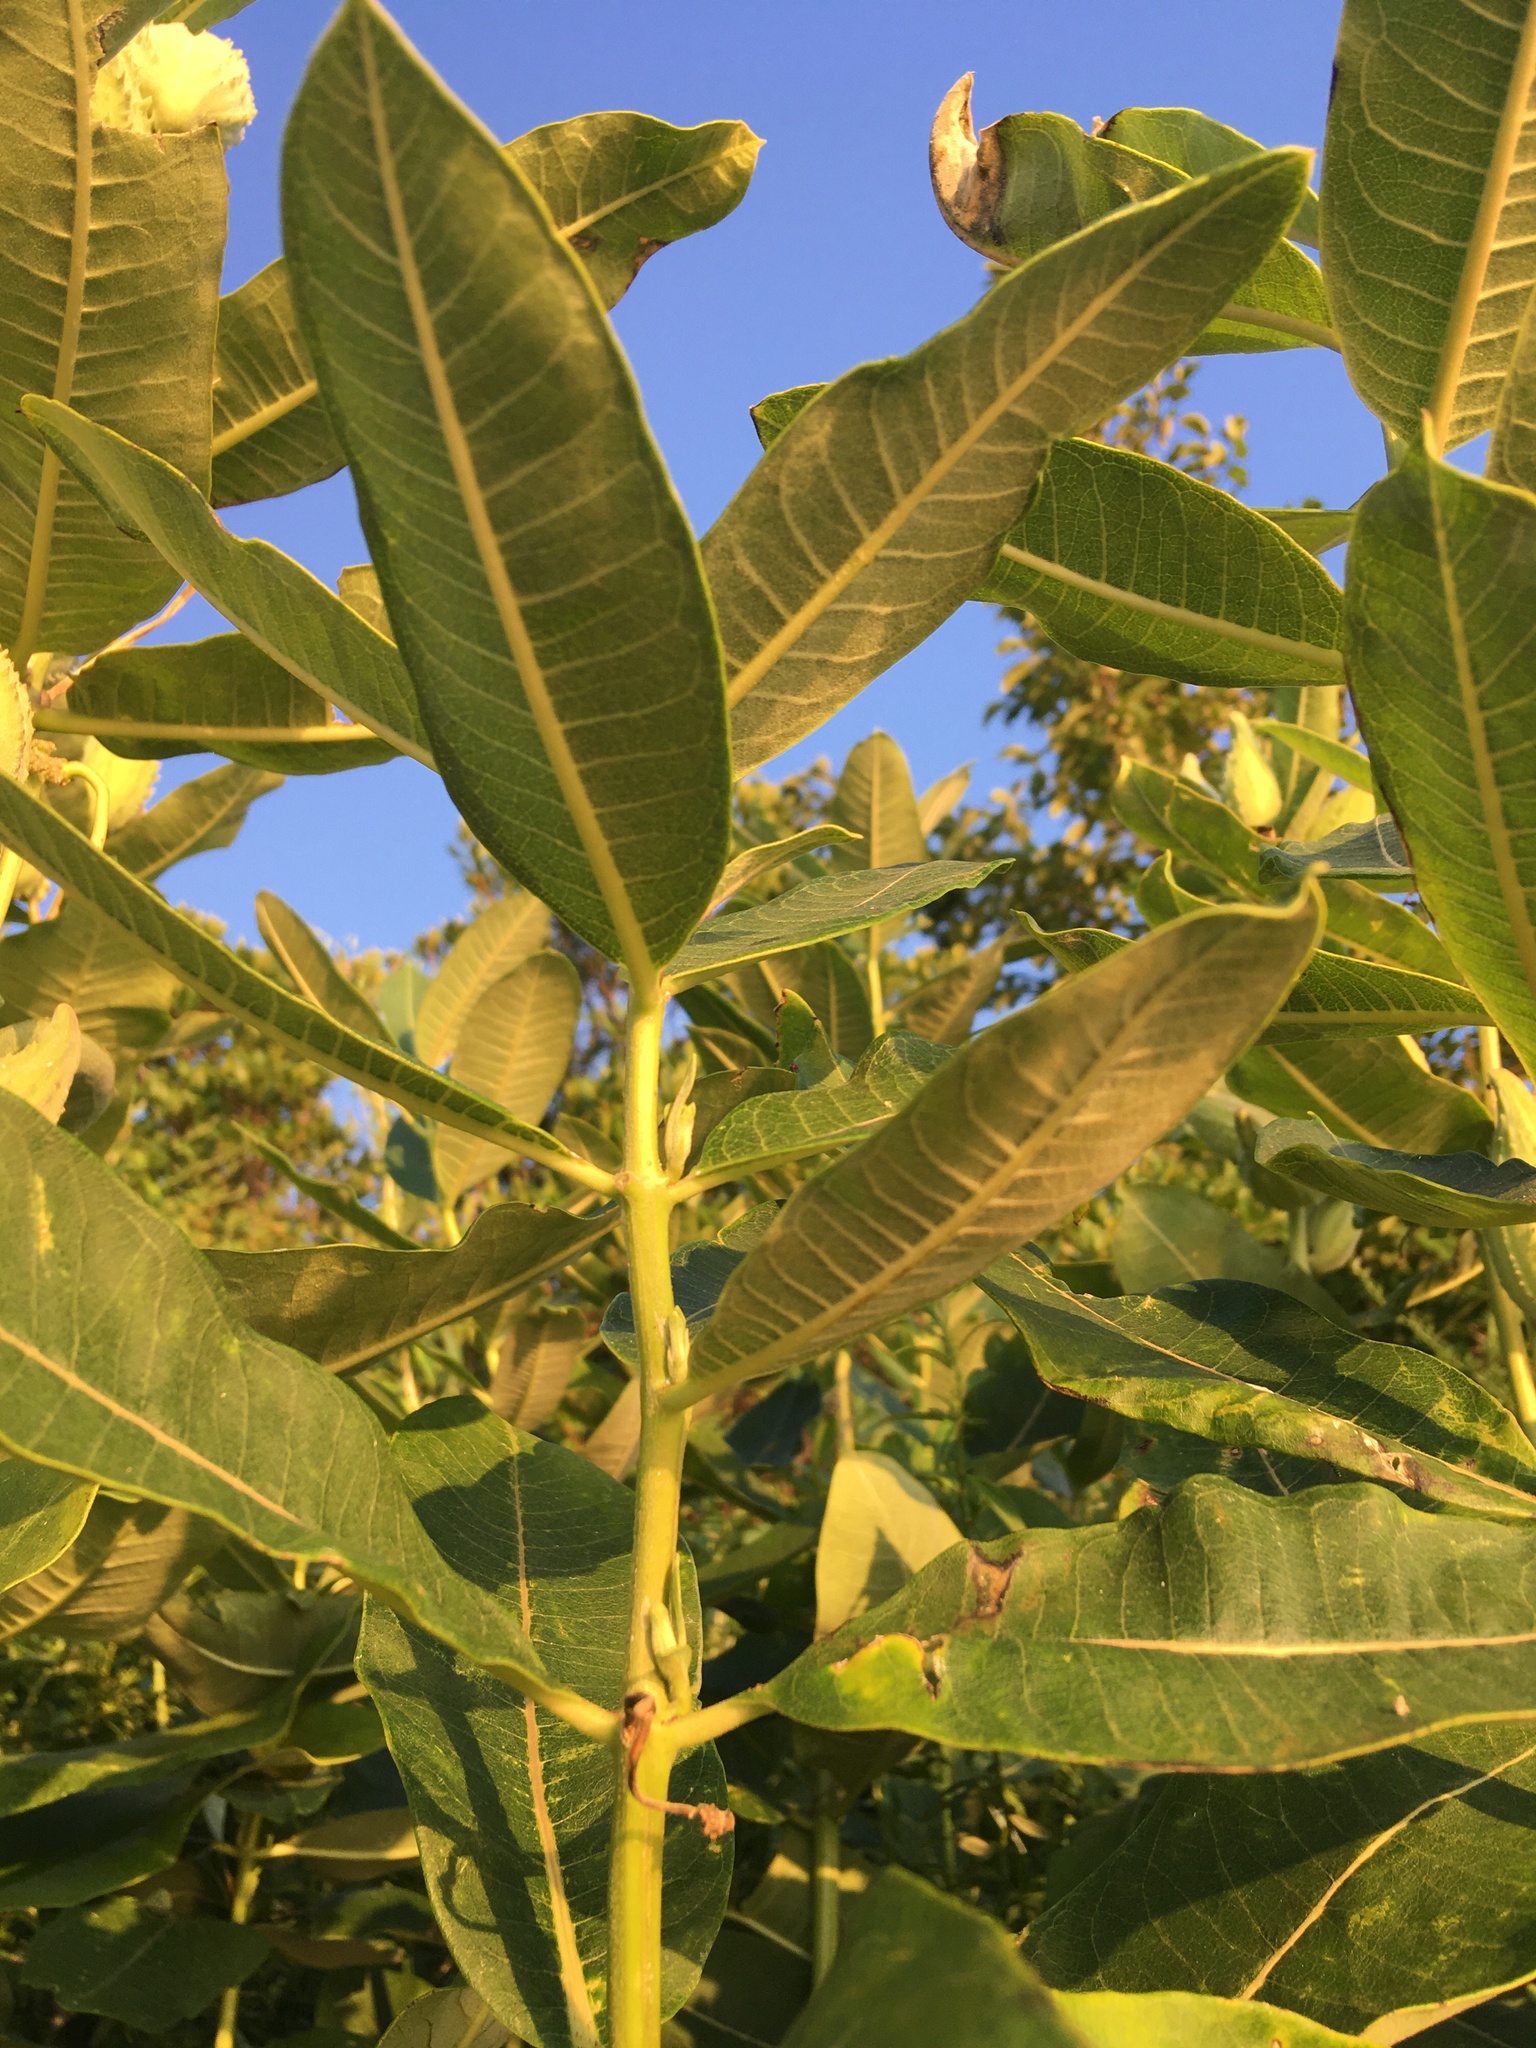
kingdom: Plantae
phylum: Tracheophyta
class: Magnoliopsida
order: Gentianales
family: Apocynaceae
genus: Asclepias
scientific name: Asclepias syriaca
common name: Common milkweed
